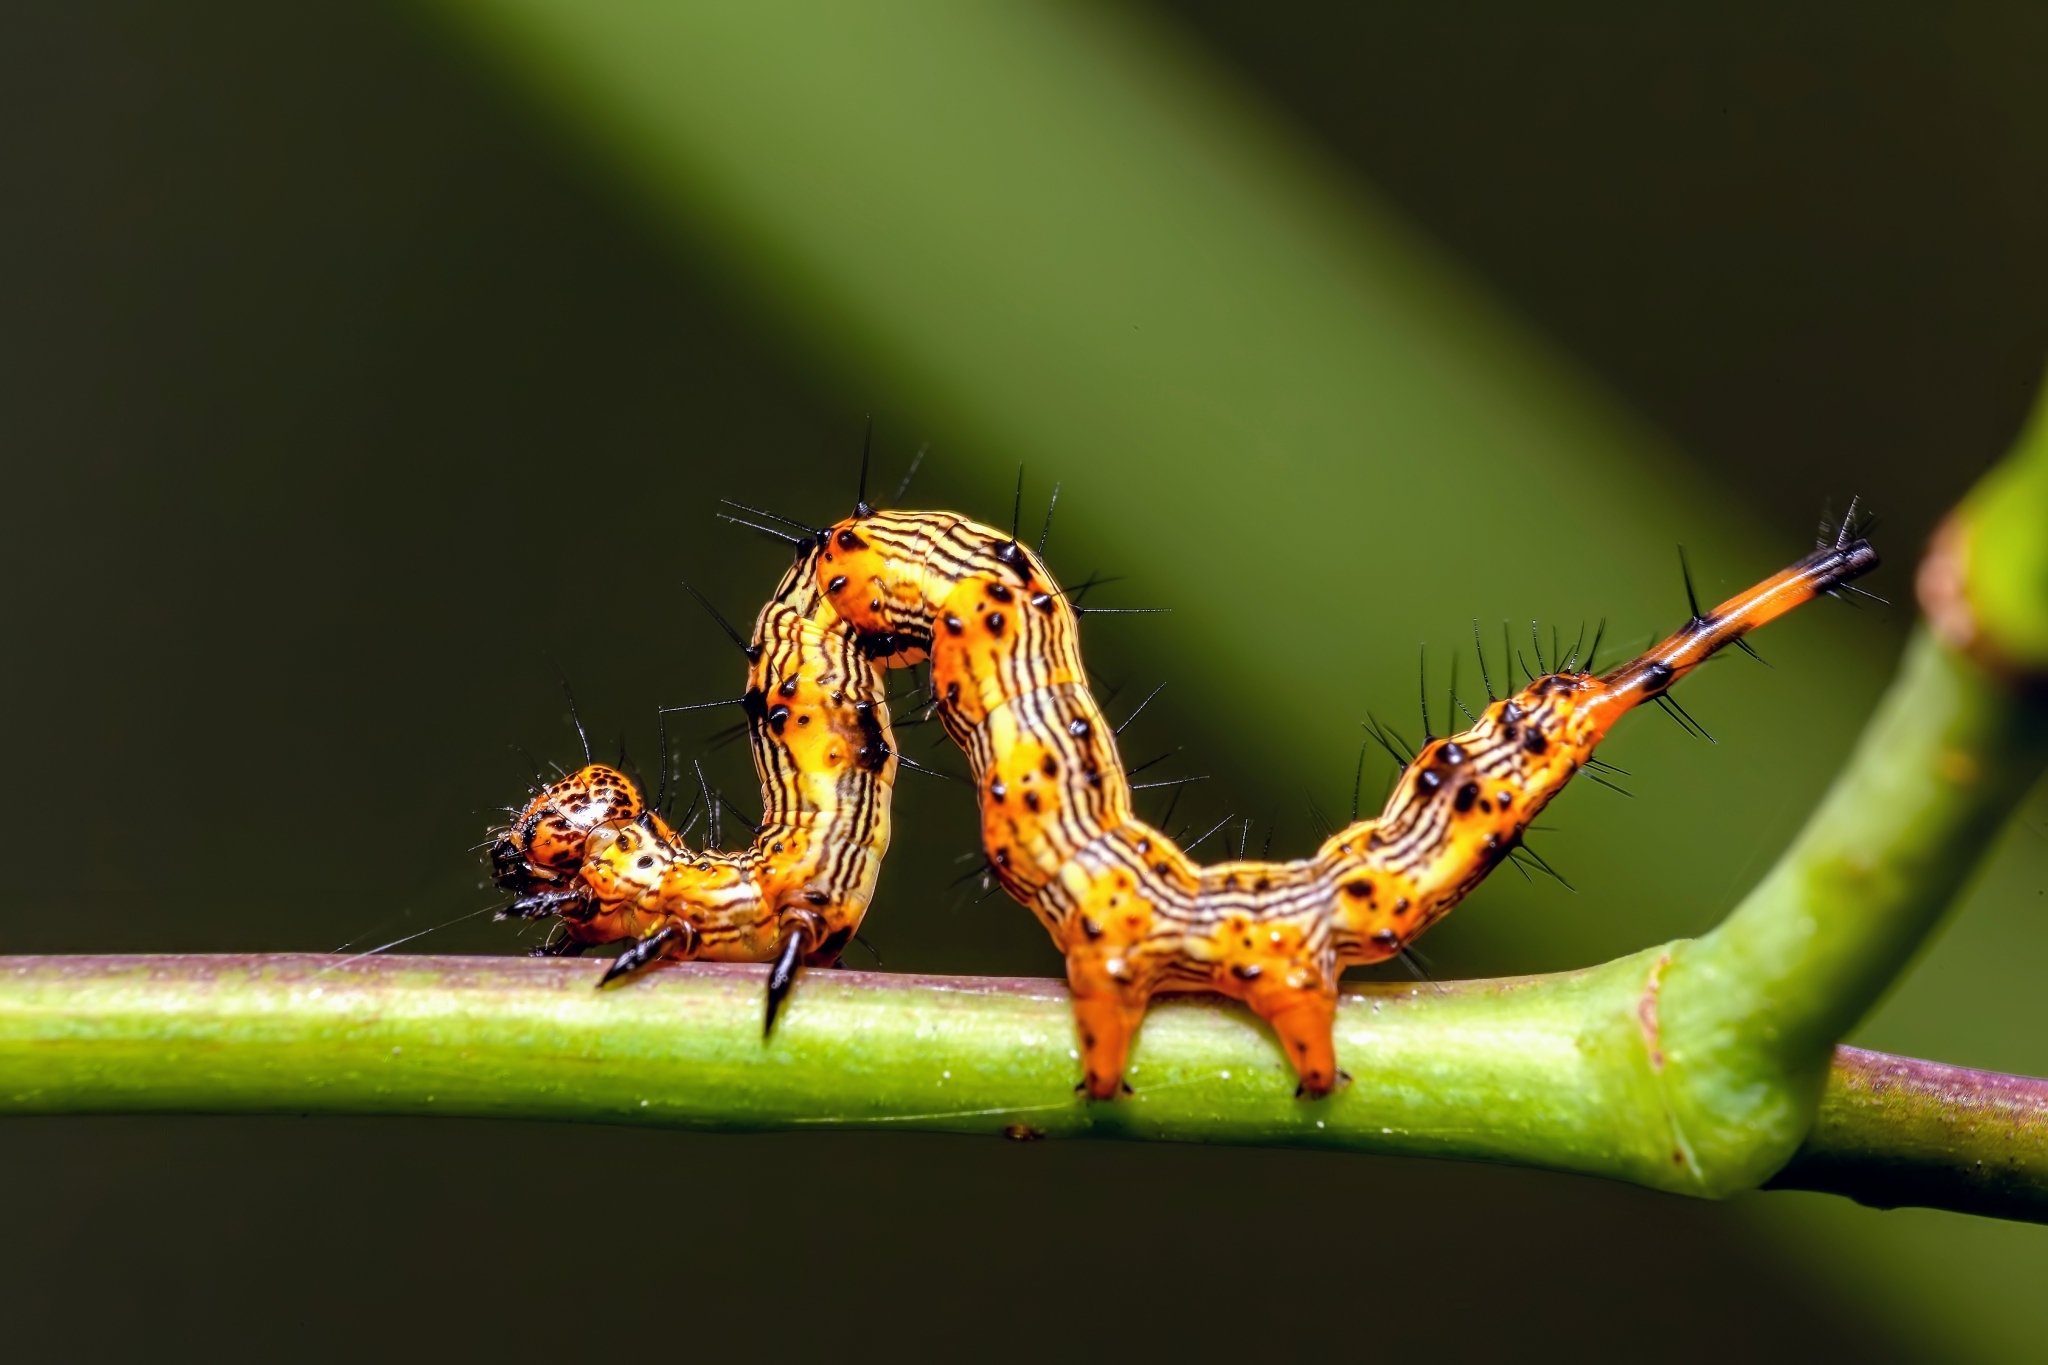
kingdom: Animalia
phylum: Arthropoda
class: Insecta
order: Lepidoptera
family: Erebidae
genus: Selenisa
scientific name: Selenisa sueroides
